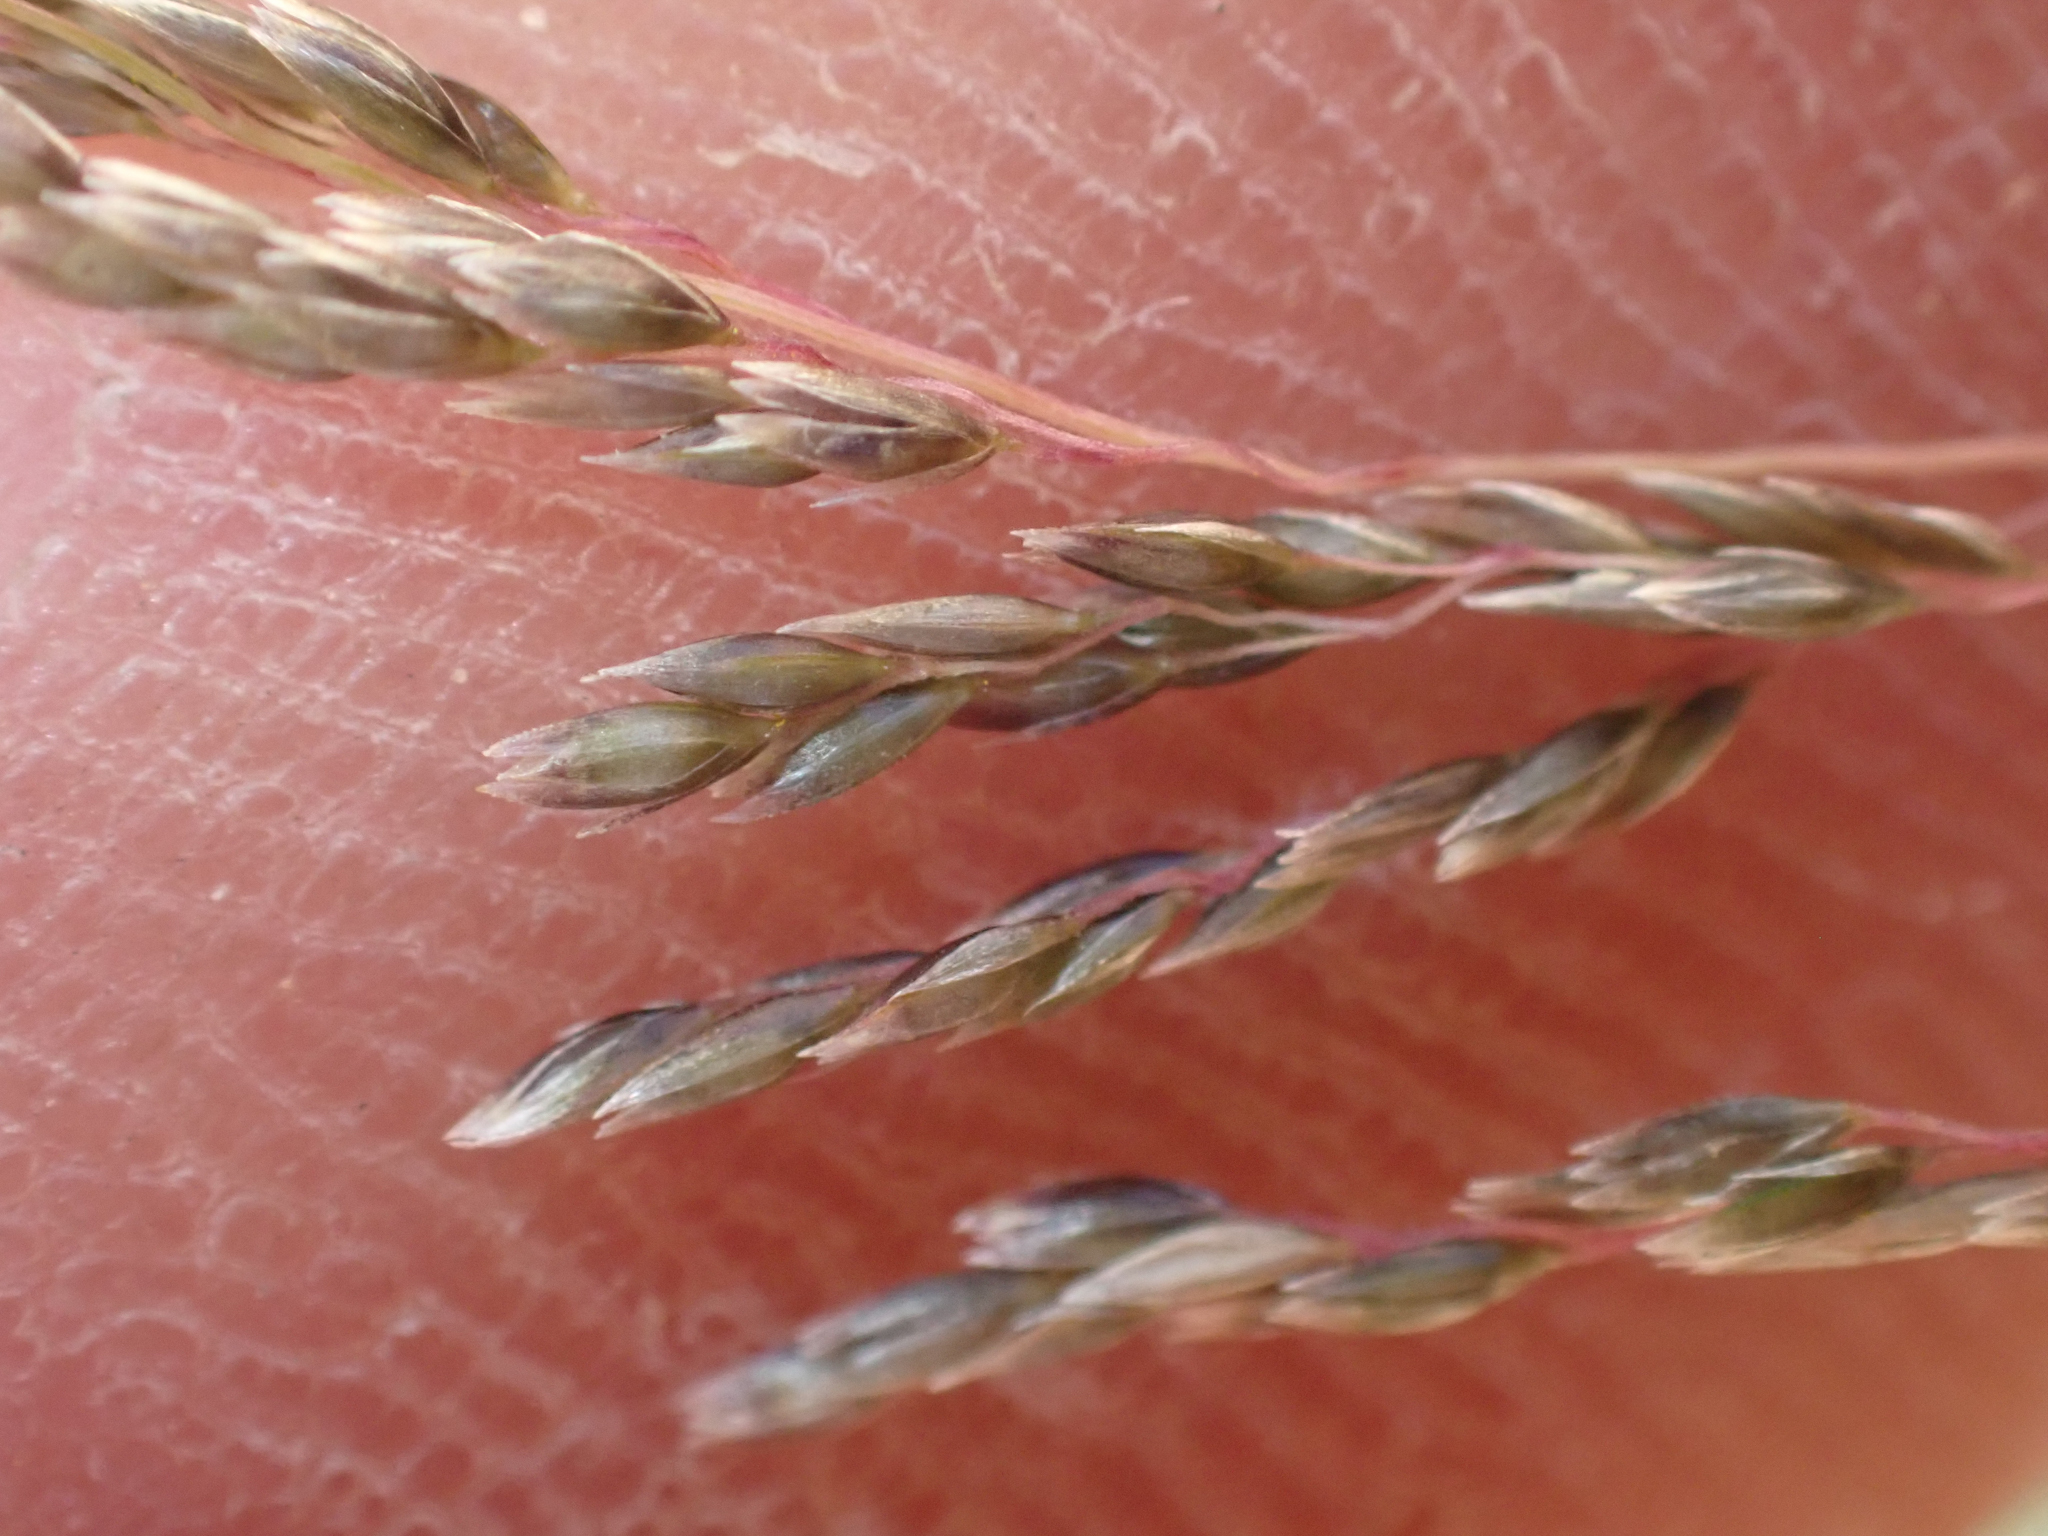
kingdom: Plantae
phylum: Tracheophyta
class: Liliopsida
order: Poales
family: Poaceae
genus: Sporobolus
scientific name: Sporobolus cryptandrus
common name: Sand dropseed
